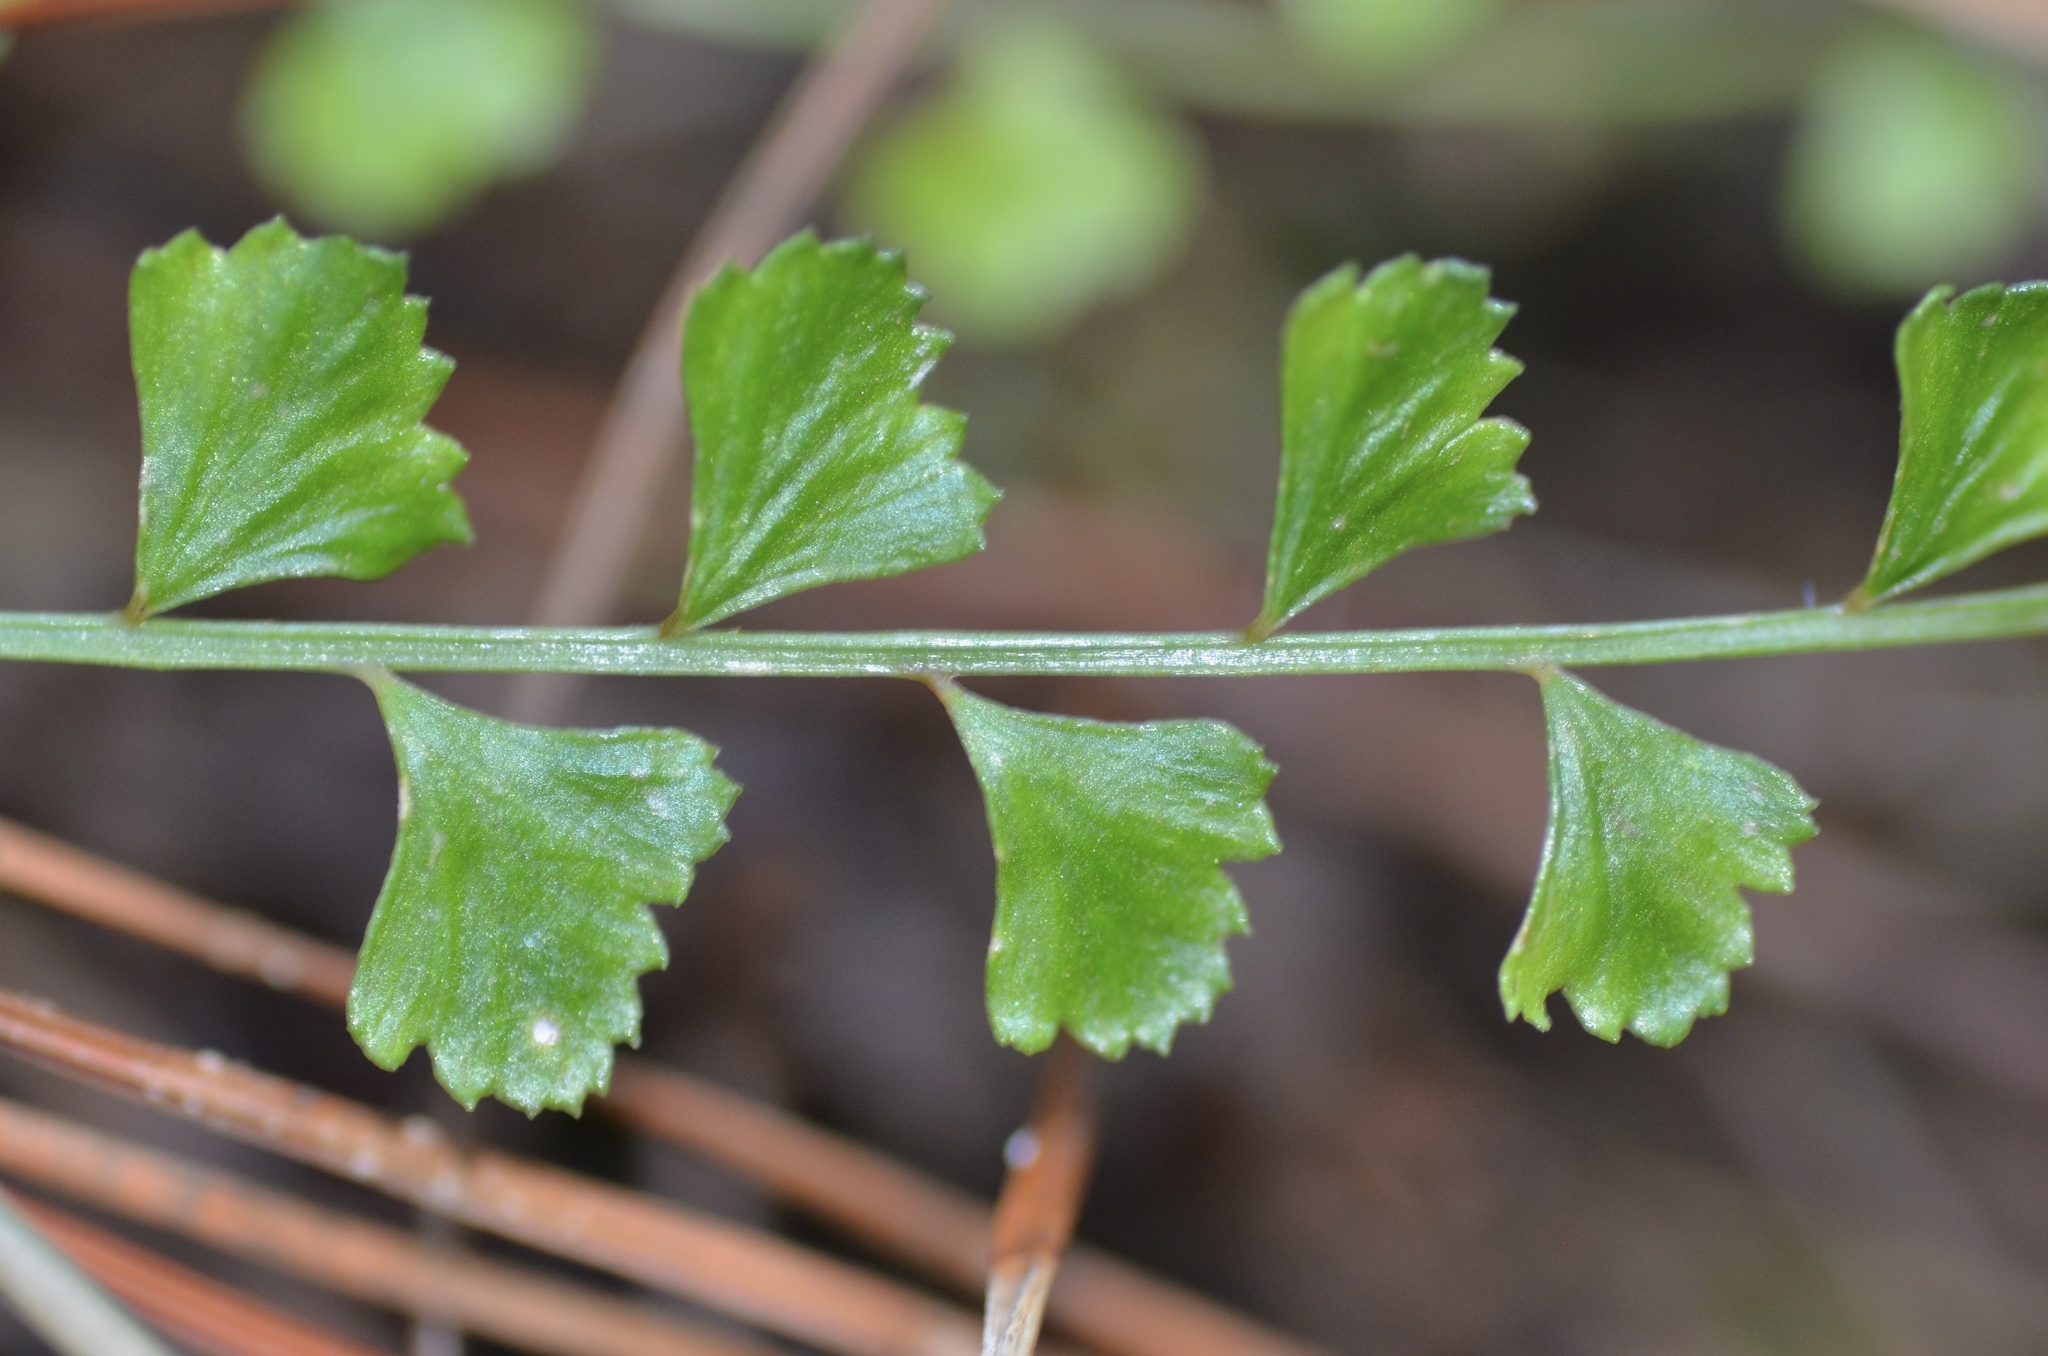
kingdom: Plantae
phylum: Tracheophyta
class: Polypodiopsida
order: Polypodiales
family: Aspleniaceae
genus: Asplenium
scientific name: Asplenium flabellifolium
